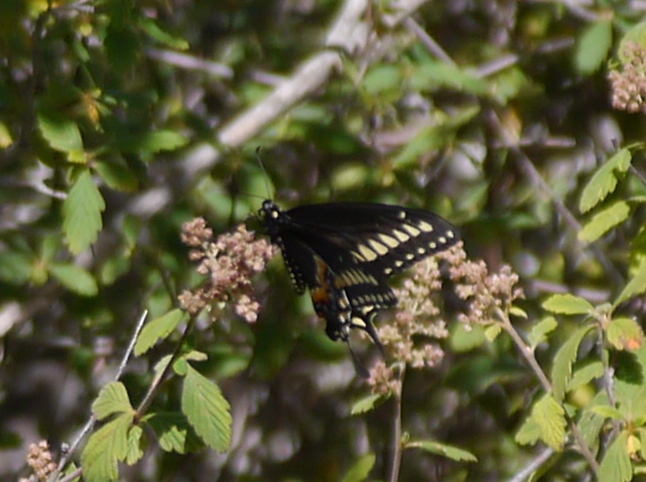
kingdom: Animalia
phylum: Arthropoda
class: Insecta
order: Lepidoptera
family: Papilionidae
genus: Papilio
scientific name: Papilio polyxenes
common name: Black swallowtail
